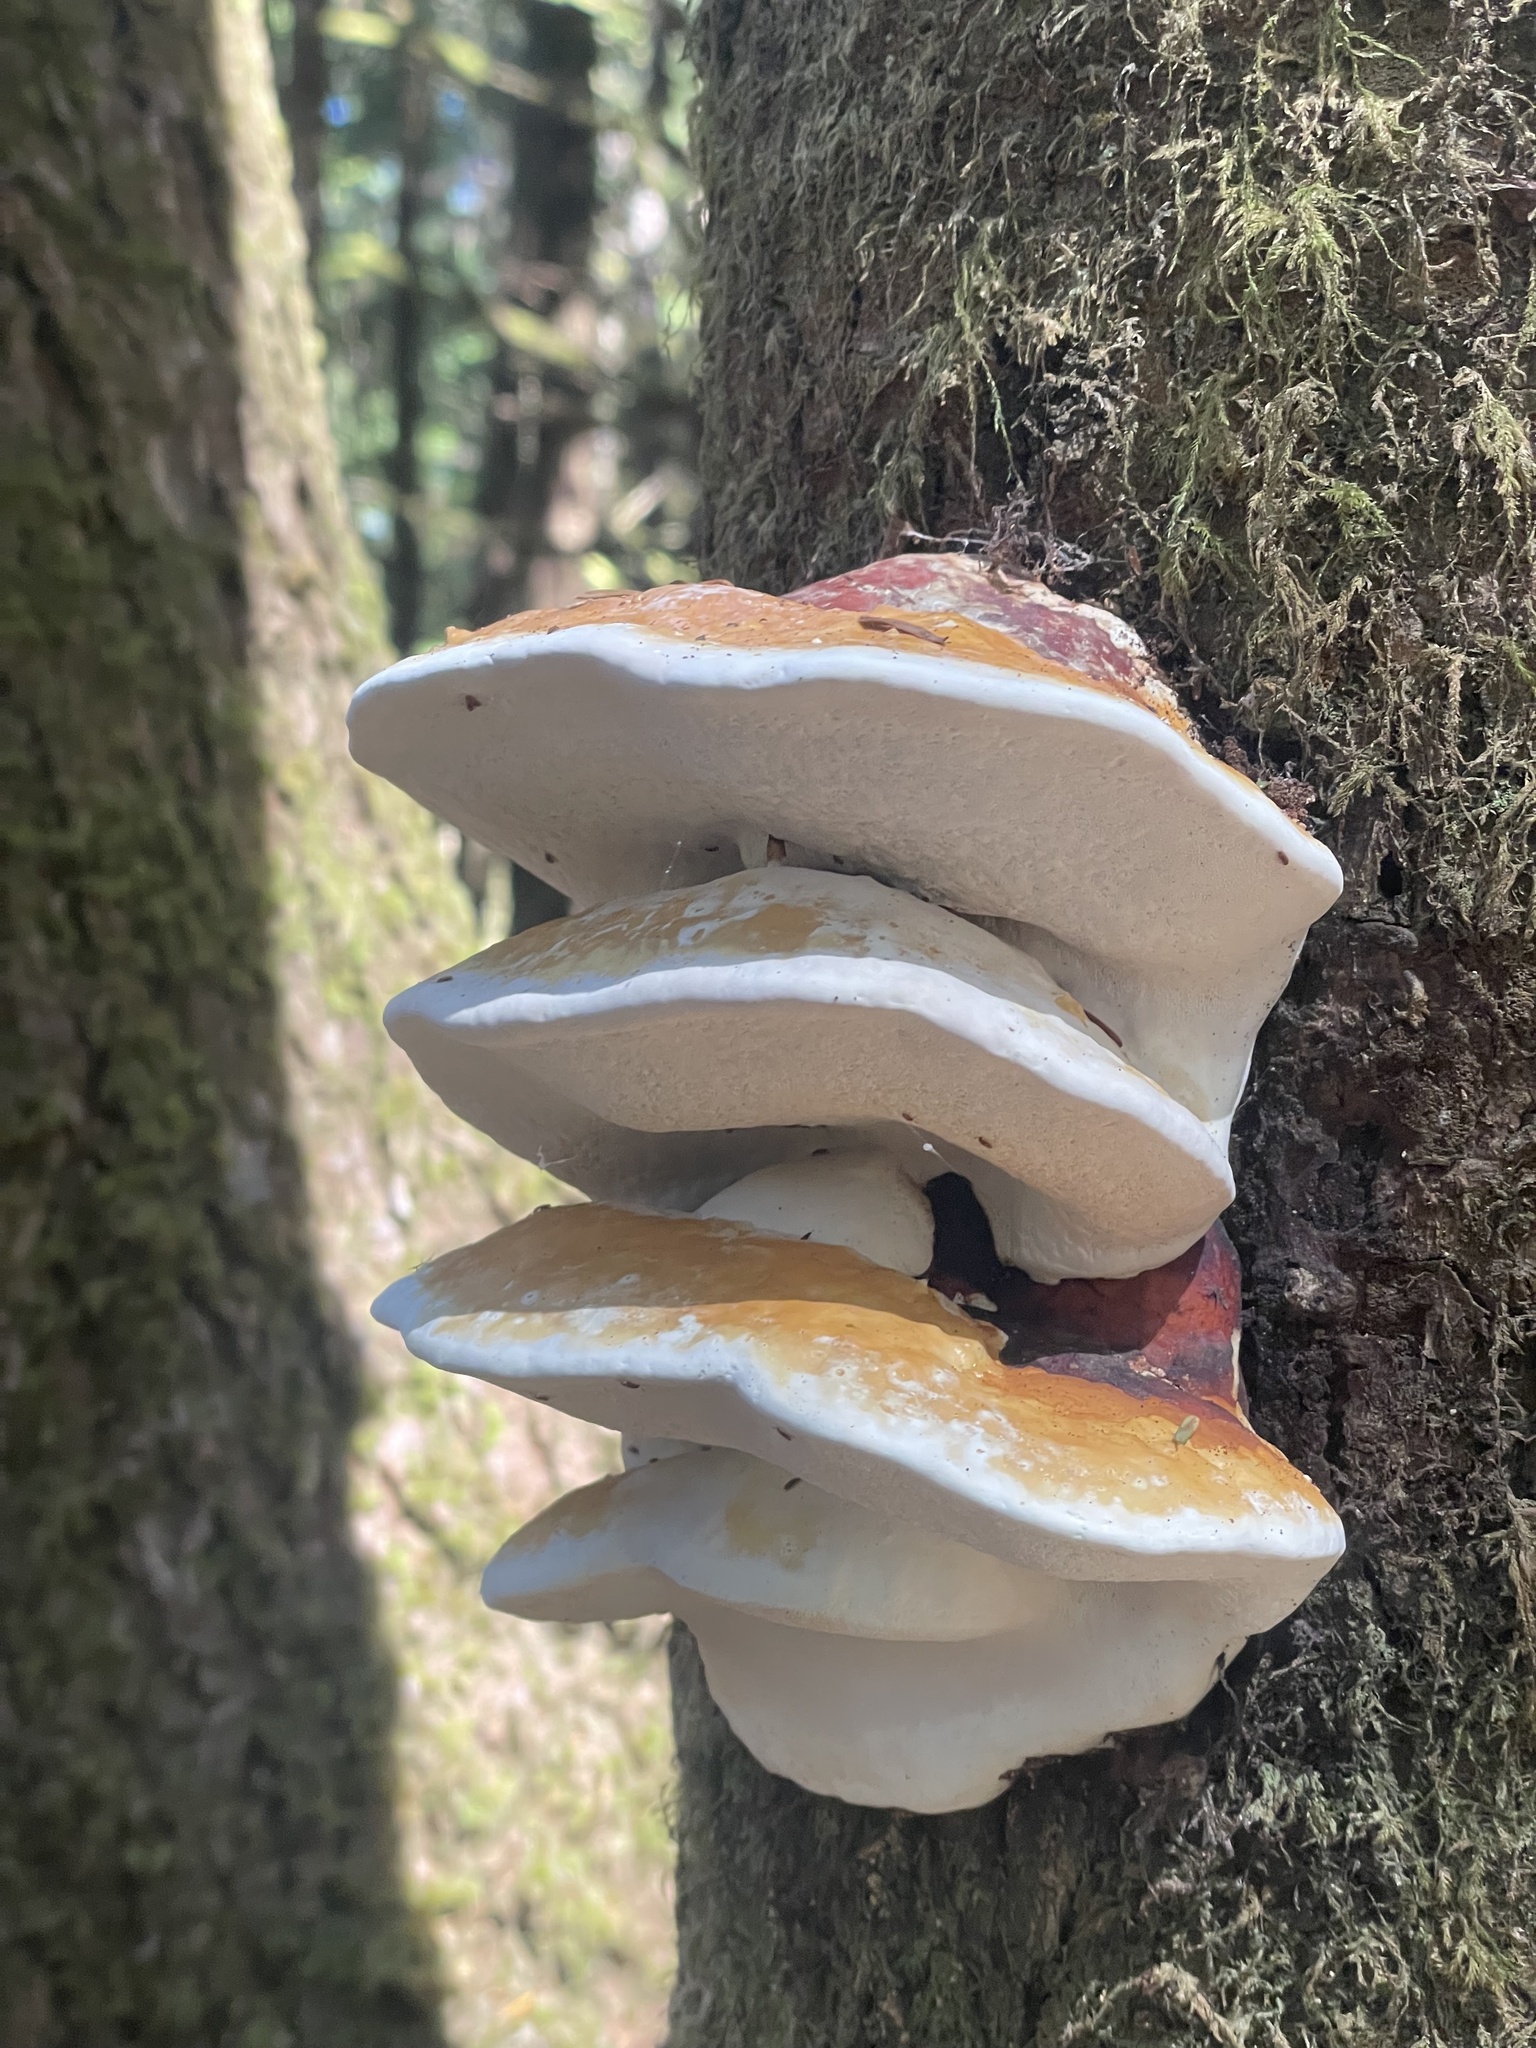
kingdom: Fungi
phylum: Basidiomycota
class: Agaricomycetes
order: Polyporales
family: Fomitopsidaceae
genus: Fomitopsis
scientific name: Fomitopsis mounceae
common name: Northern red belt
